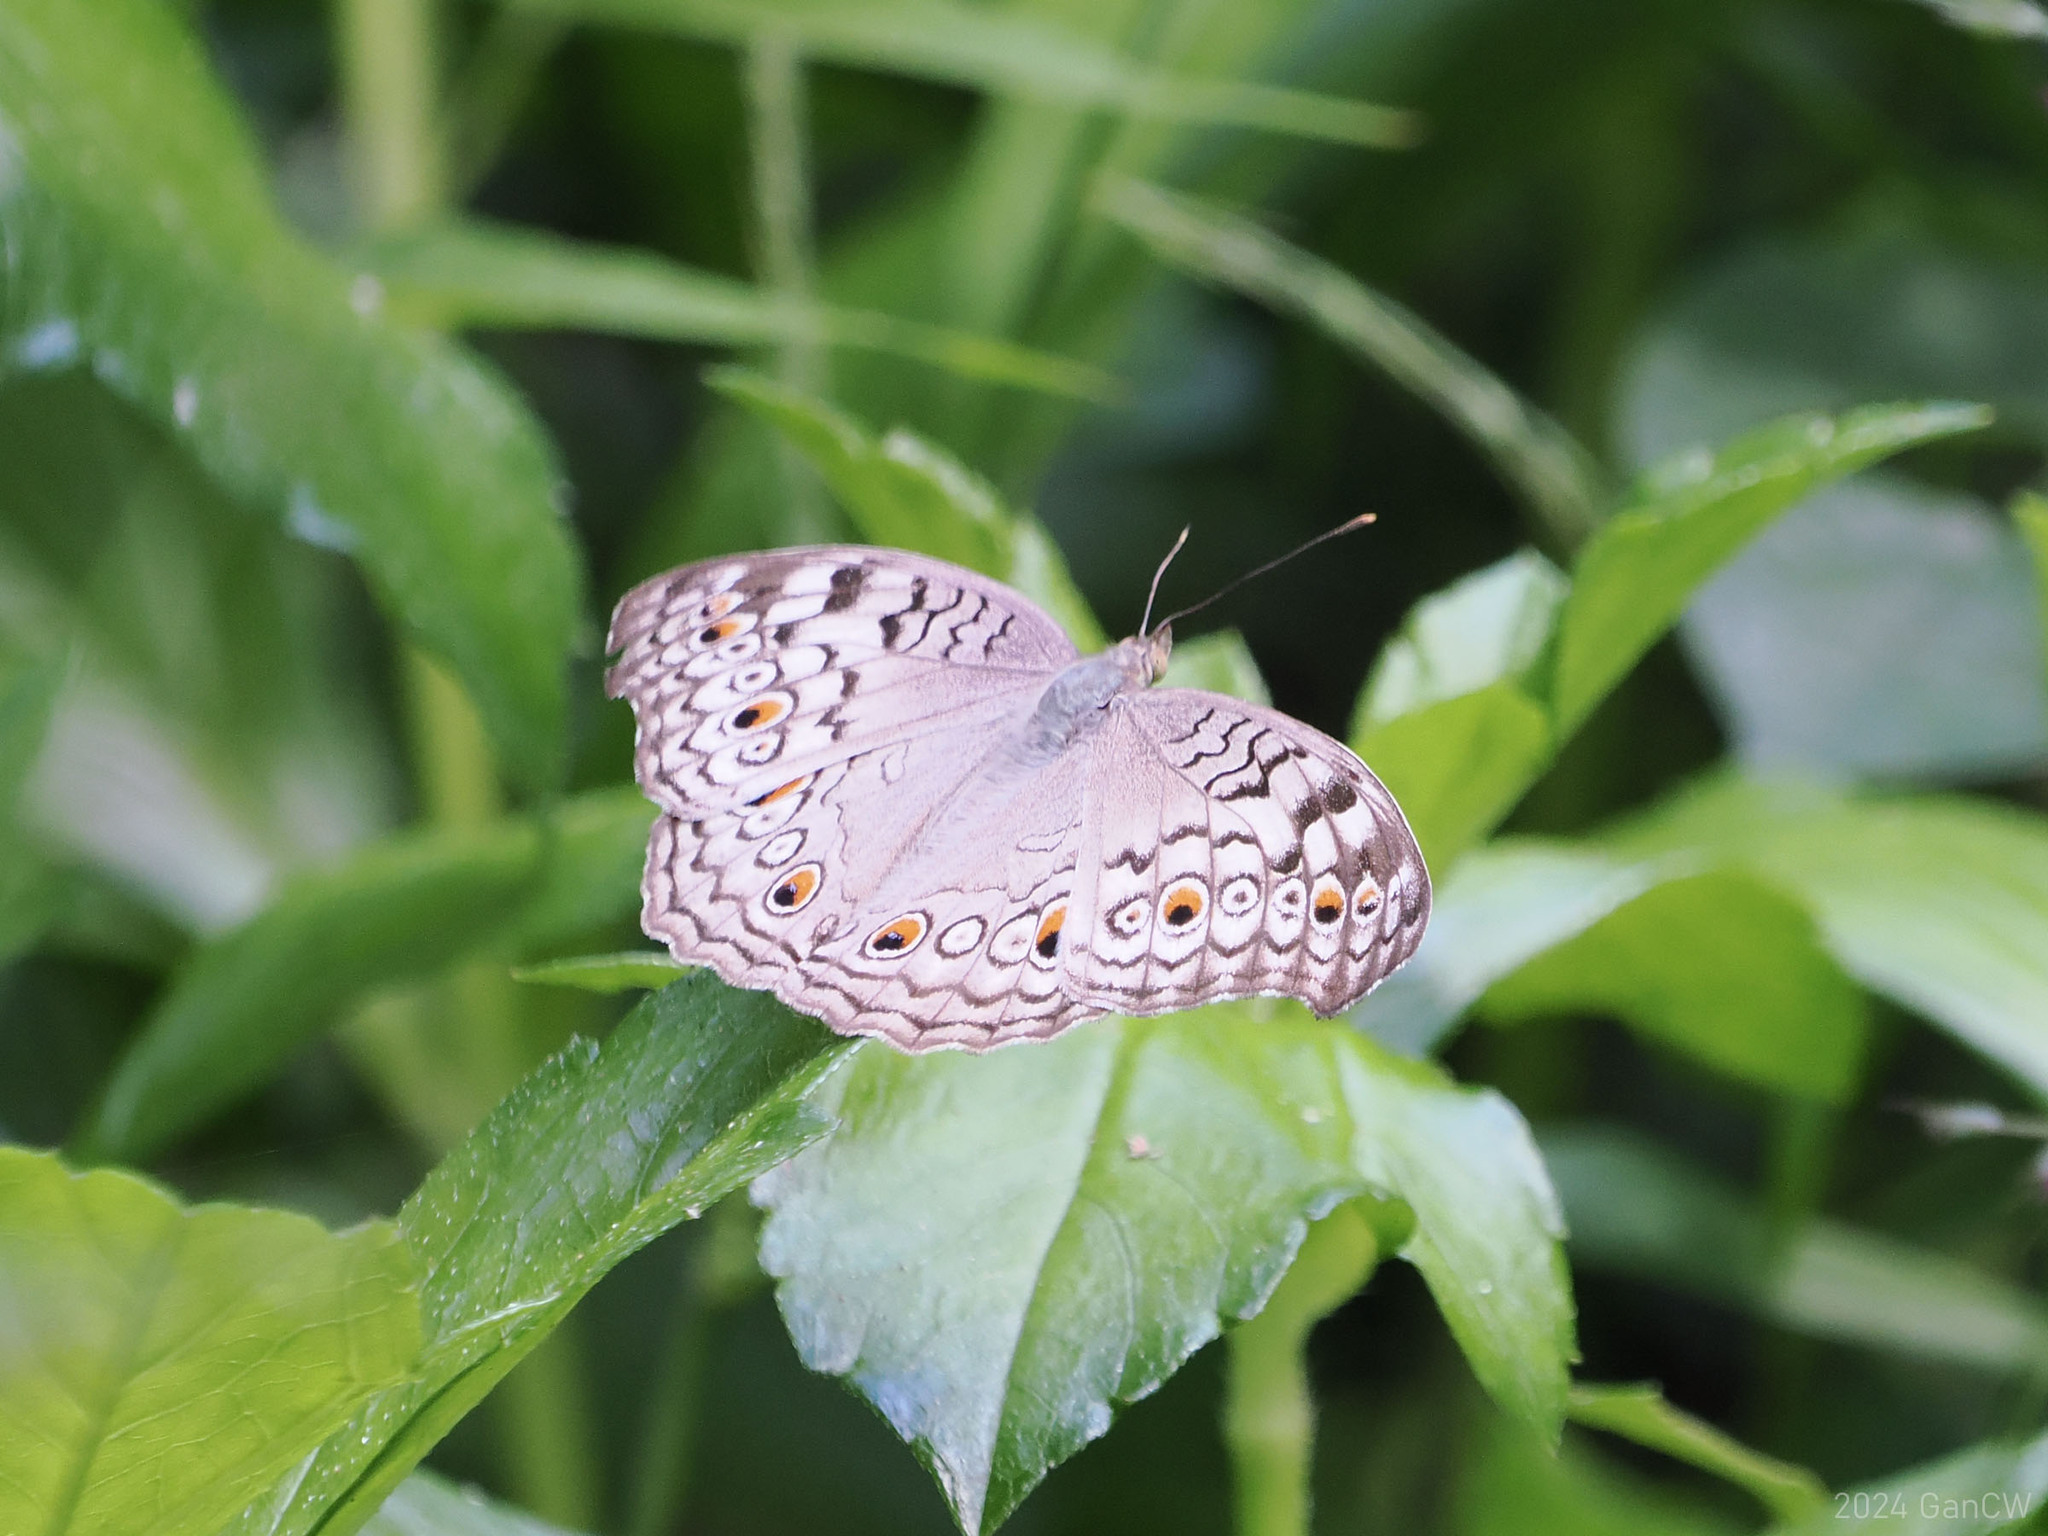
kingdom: Animalia
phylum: Arthropoda
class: Insecta
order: Lepidoptera
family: Nymphalidae
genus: Junonia
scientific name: Junonia atlites
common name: Grey pansy
